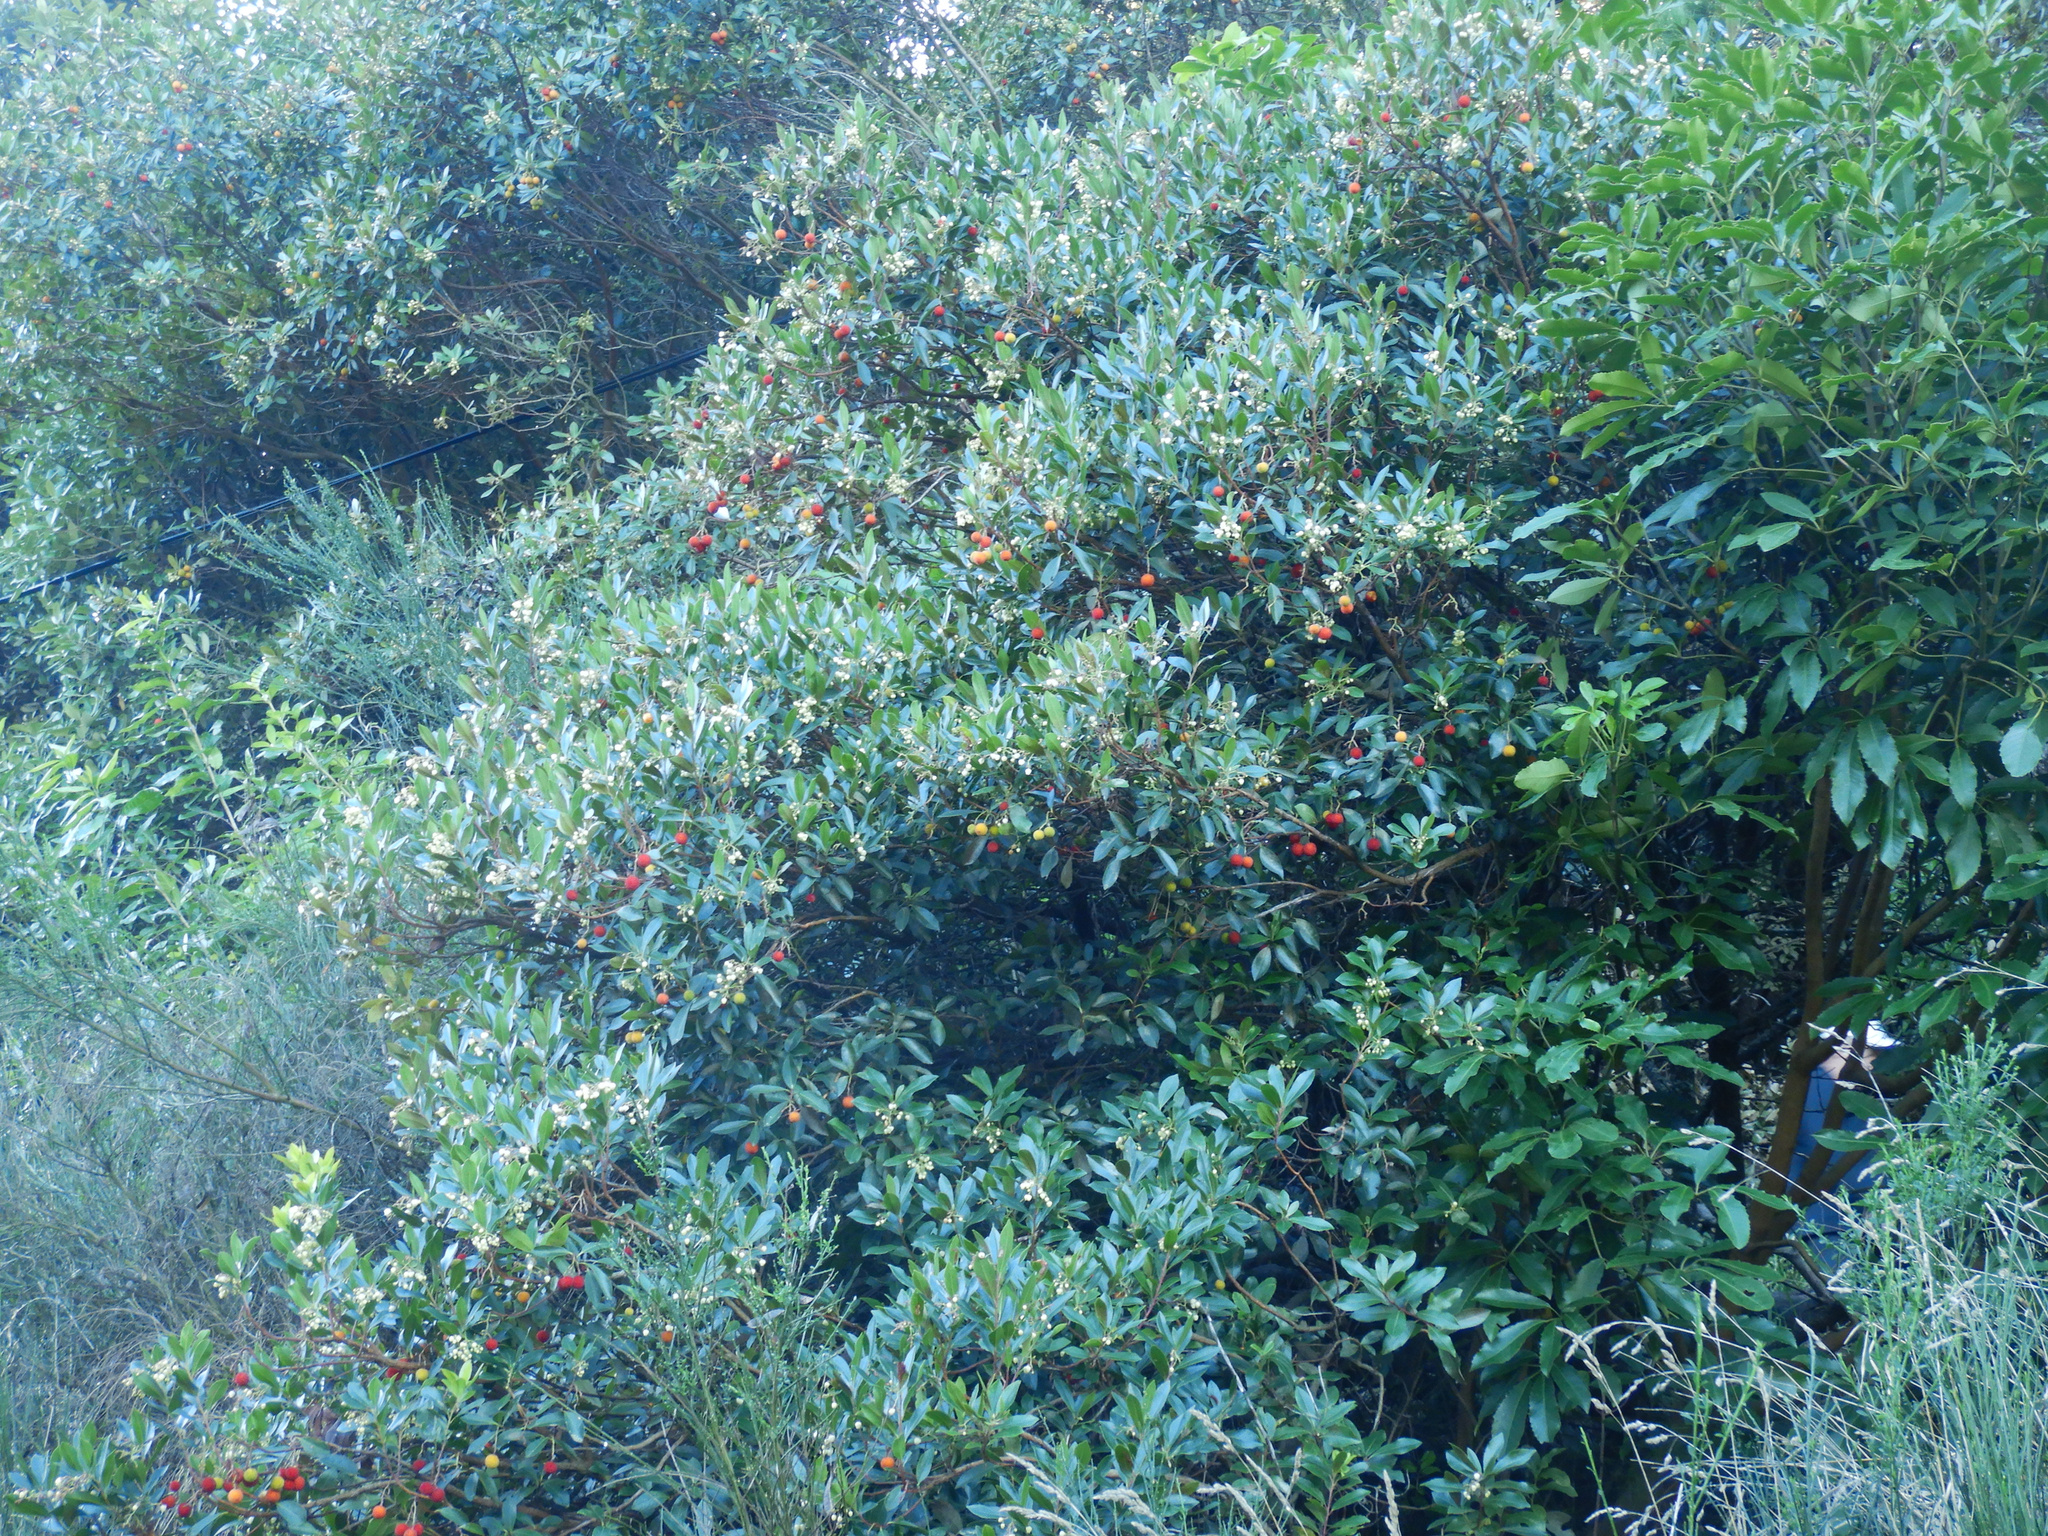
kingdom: Plantae
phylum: Tracheophyta
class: Magnoliopsida
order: Ericales
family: Ericaceae
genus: Arbutus
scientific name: Arbutus unedo
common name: Strawberry-tree
